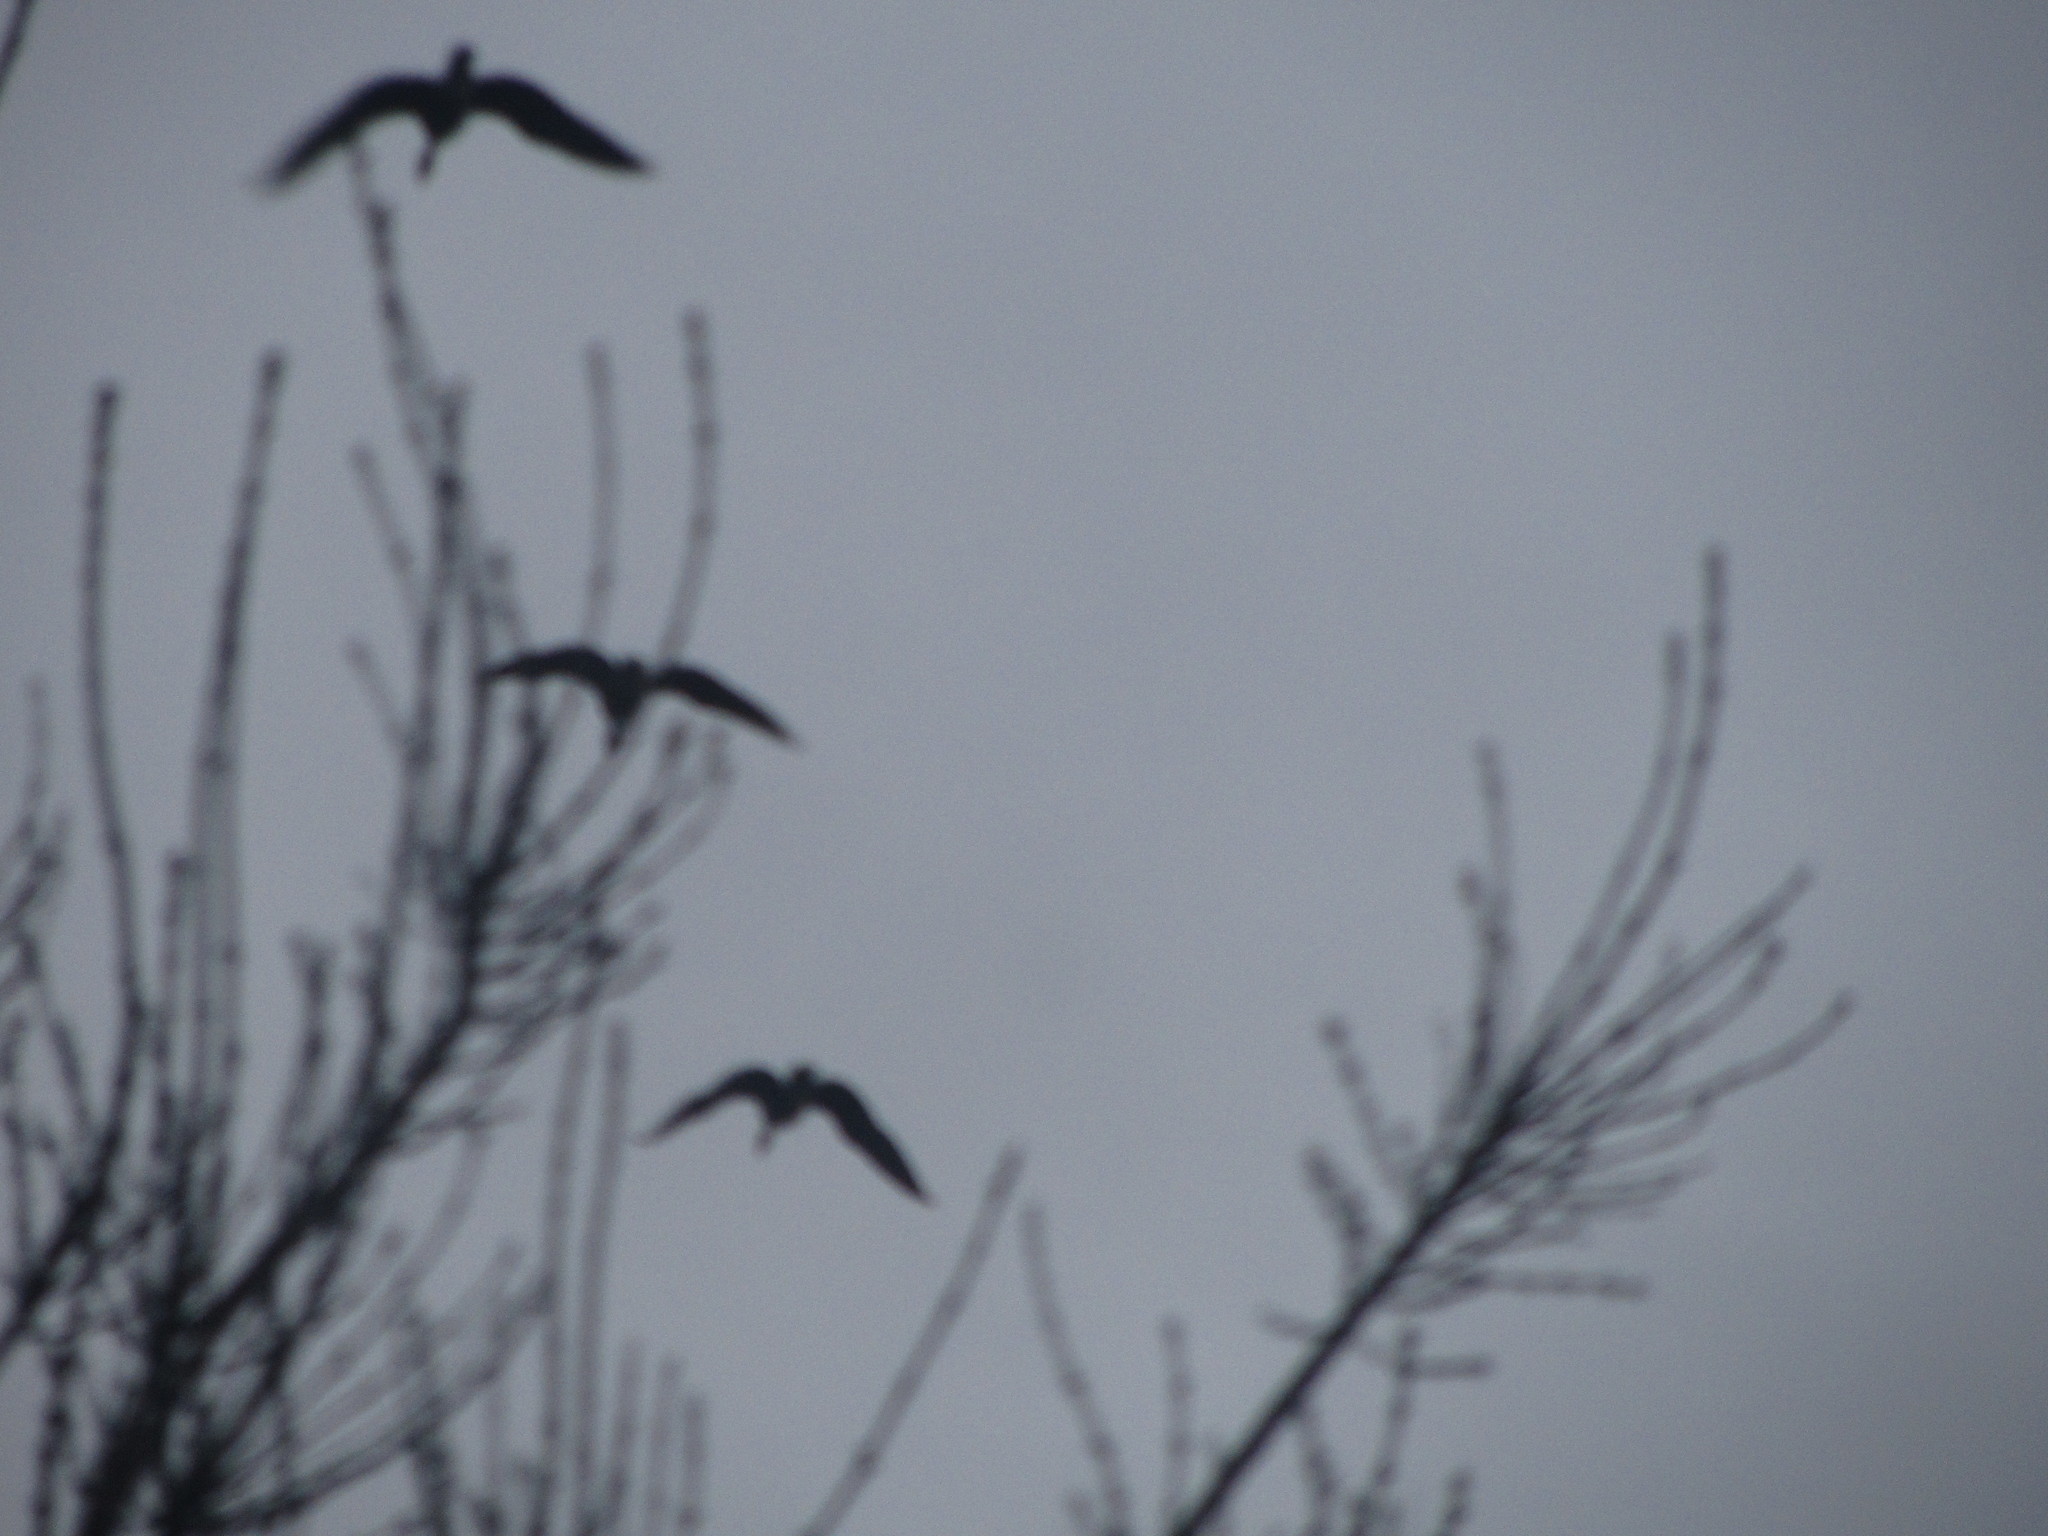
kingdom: Animalia
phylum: Chordata
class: Aves
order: Anseriformes
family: Anatidae
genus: Branta
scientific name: Branta canadensis
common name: Canada goose
